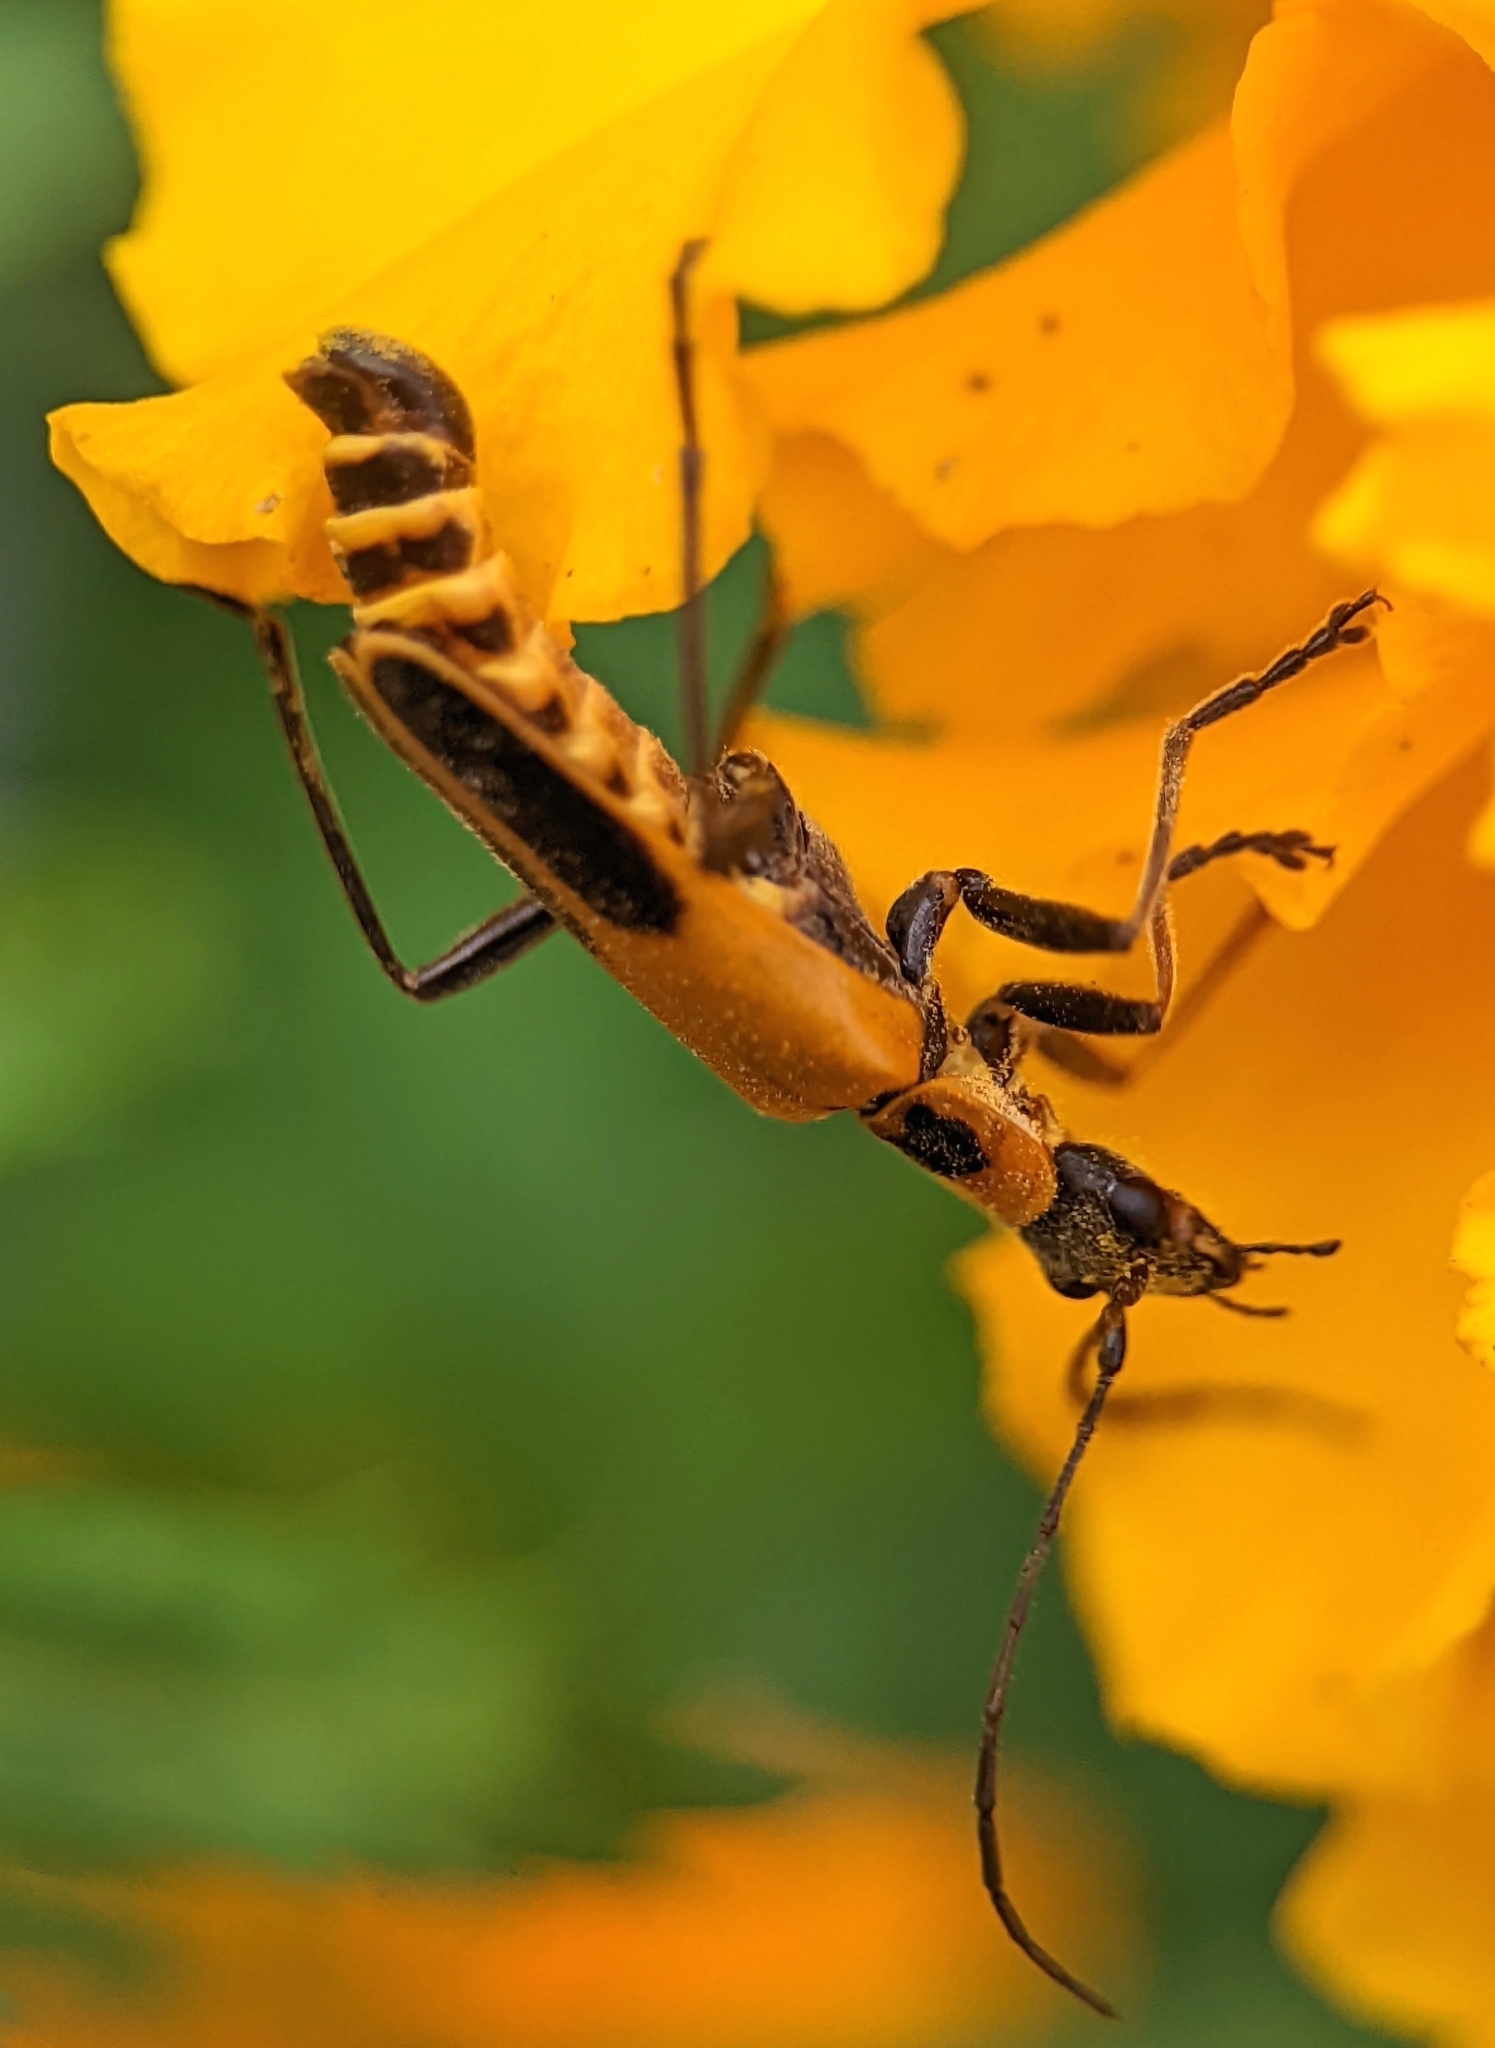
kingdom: Animalia
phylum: Arthropoda
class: Insecta
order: Coleoptera
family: Cantharidae
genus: Chauliognathus
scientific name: Chauliognathus pensylvanicus
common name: Goldenrod soldier beetle
